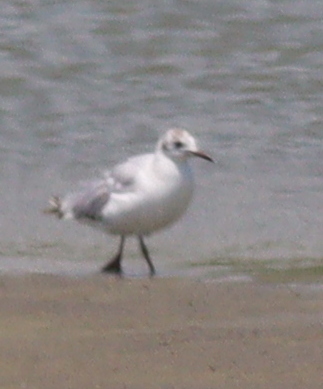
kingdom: Animalia
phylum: Chordata
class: Aves
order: Charadriiformes
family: Laridae
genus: Chroicocephalus
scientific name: Chroicocephalus ridibundus
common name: Black-headed gull
